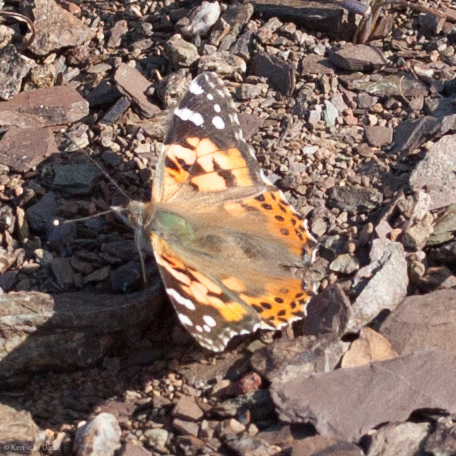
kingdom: Animalia
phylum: Arthropoda
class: Insecta
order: Lepidoptera
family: Nymphalidae
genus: Vanessa
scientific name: Vanessa cardui
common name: Painted lady
